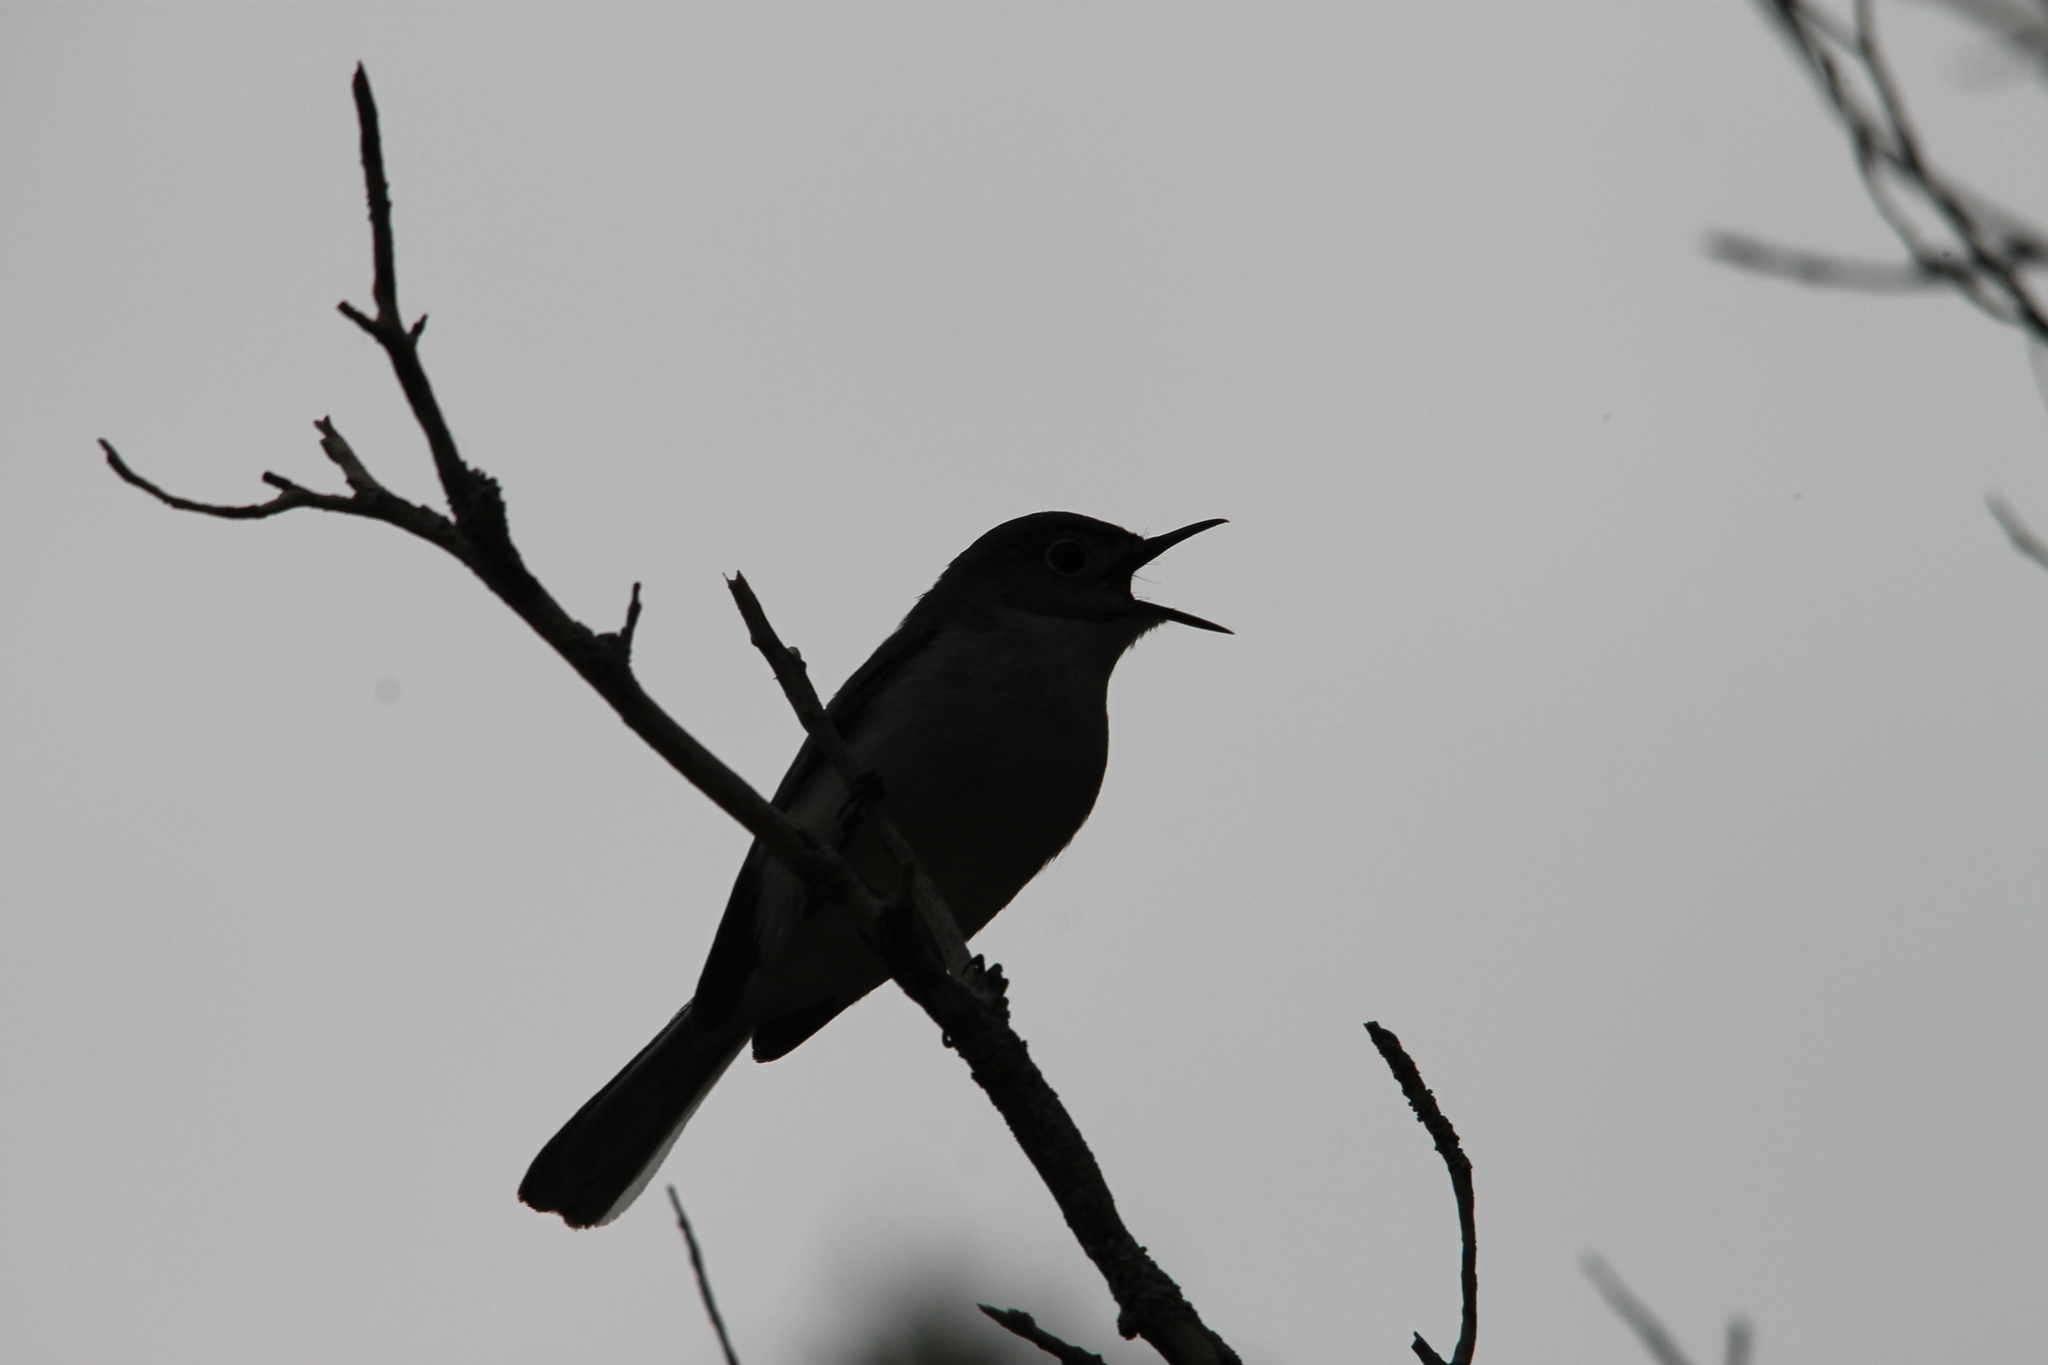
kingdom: Animalia
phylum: Chordata
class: Aves
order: Passeriformes
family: Polioptilidae
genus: Polioptila
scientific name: Polioptila caerulea
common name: Blue-gray gnatcatcher
